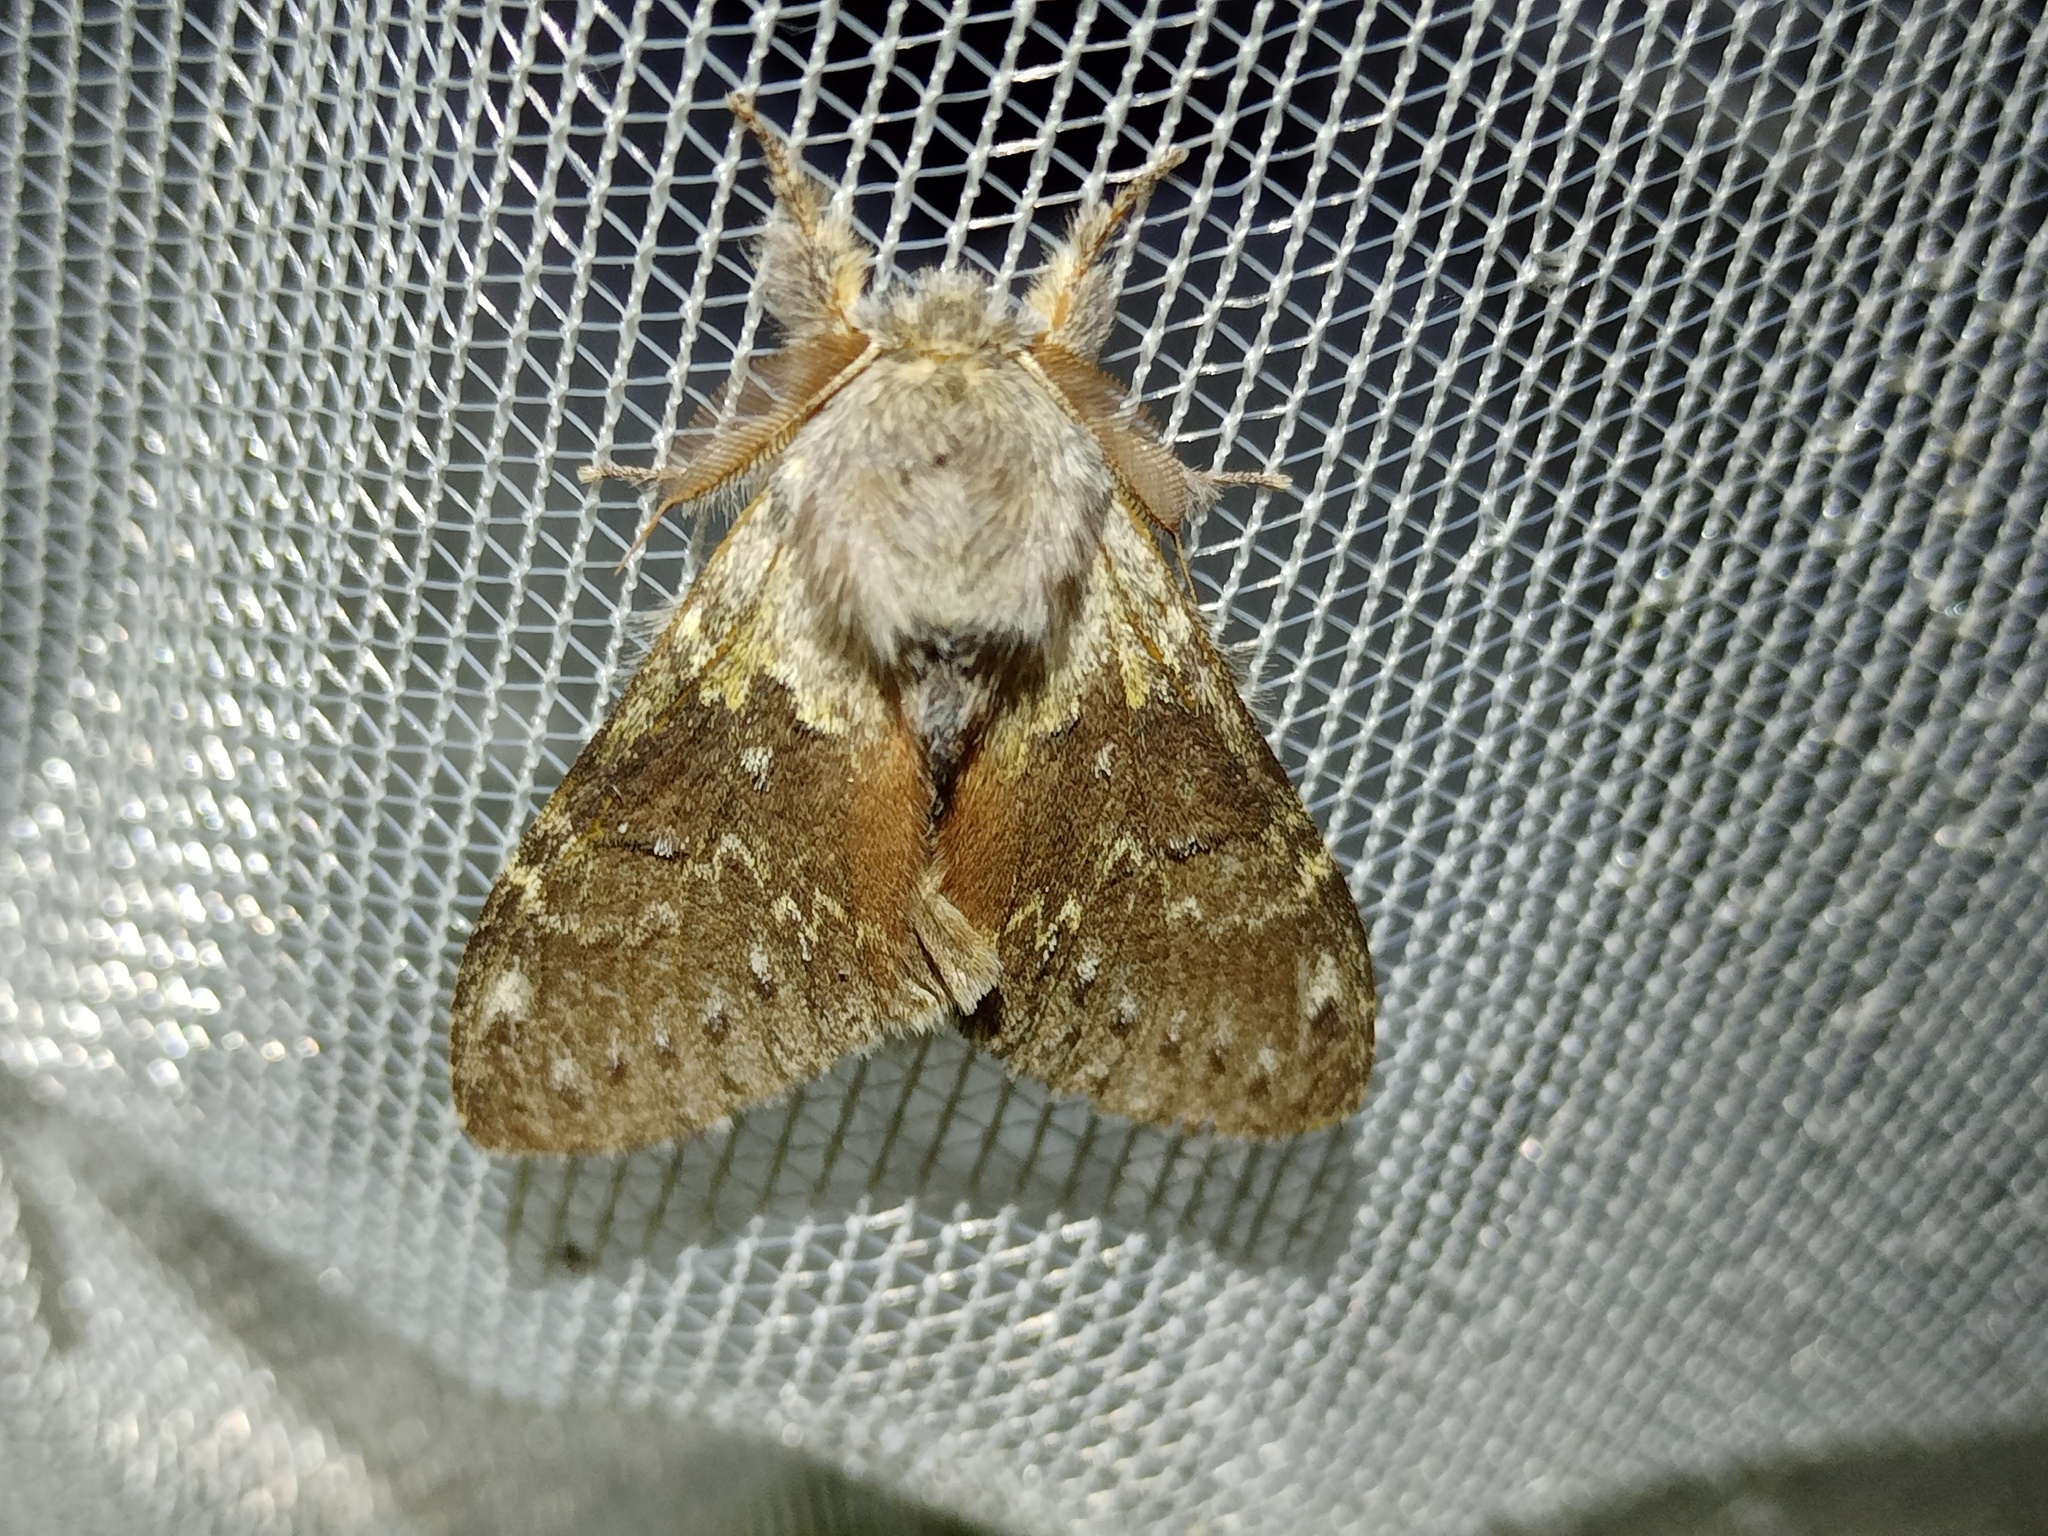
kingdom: Animalia
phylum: Arthropoda
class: Insecta
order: Lepidoptera
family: Notodontidae
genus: Stauropus
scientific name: Stauropus fagi
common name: Lobster moth
